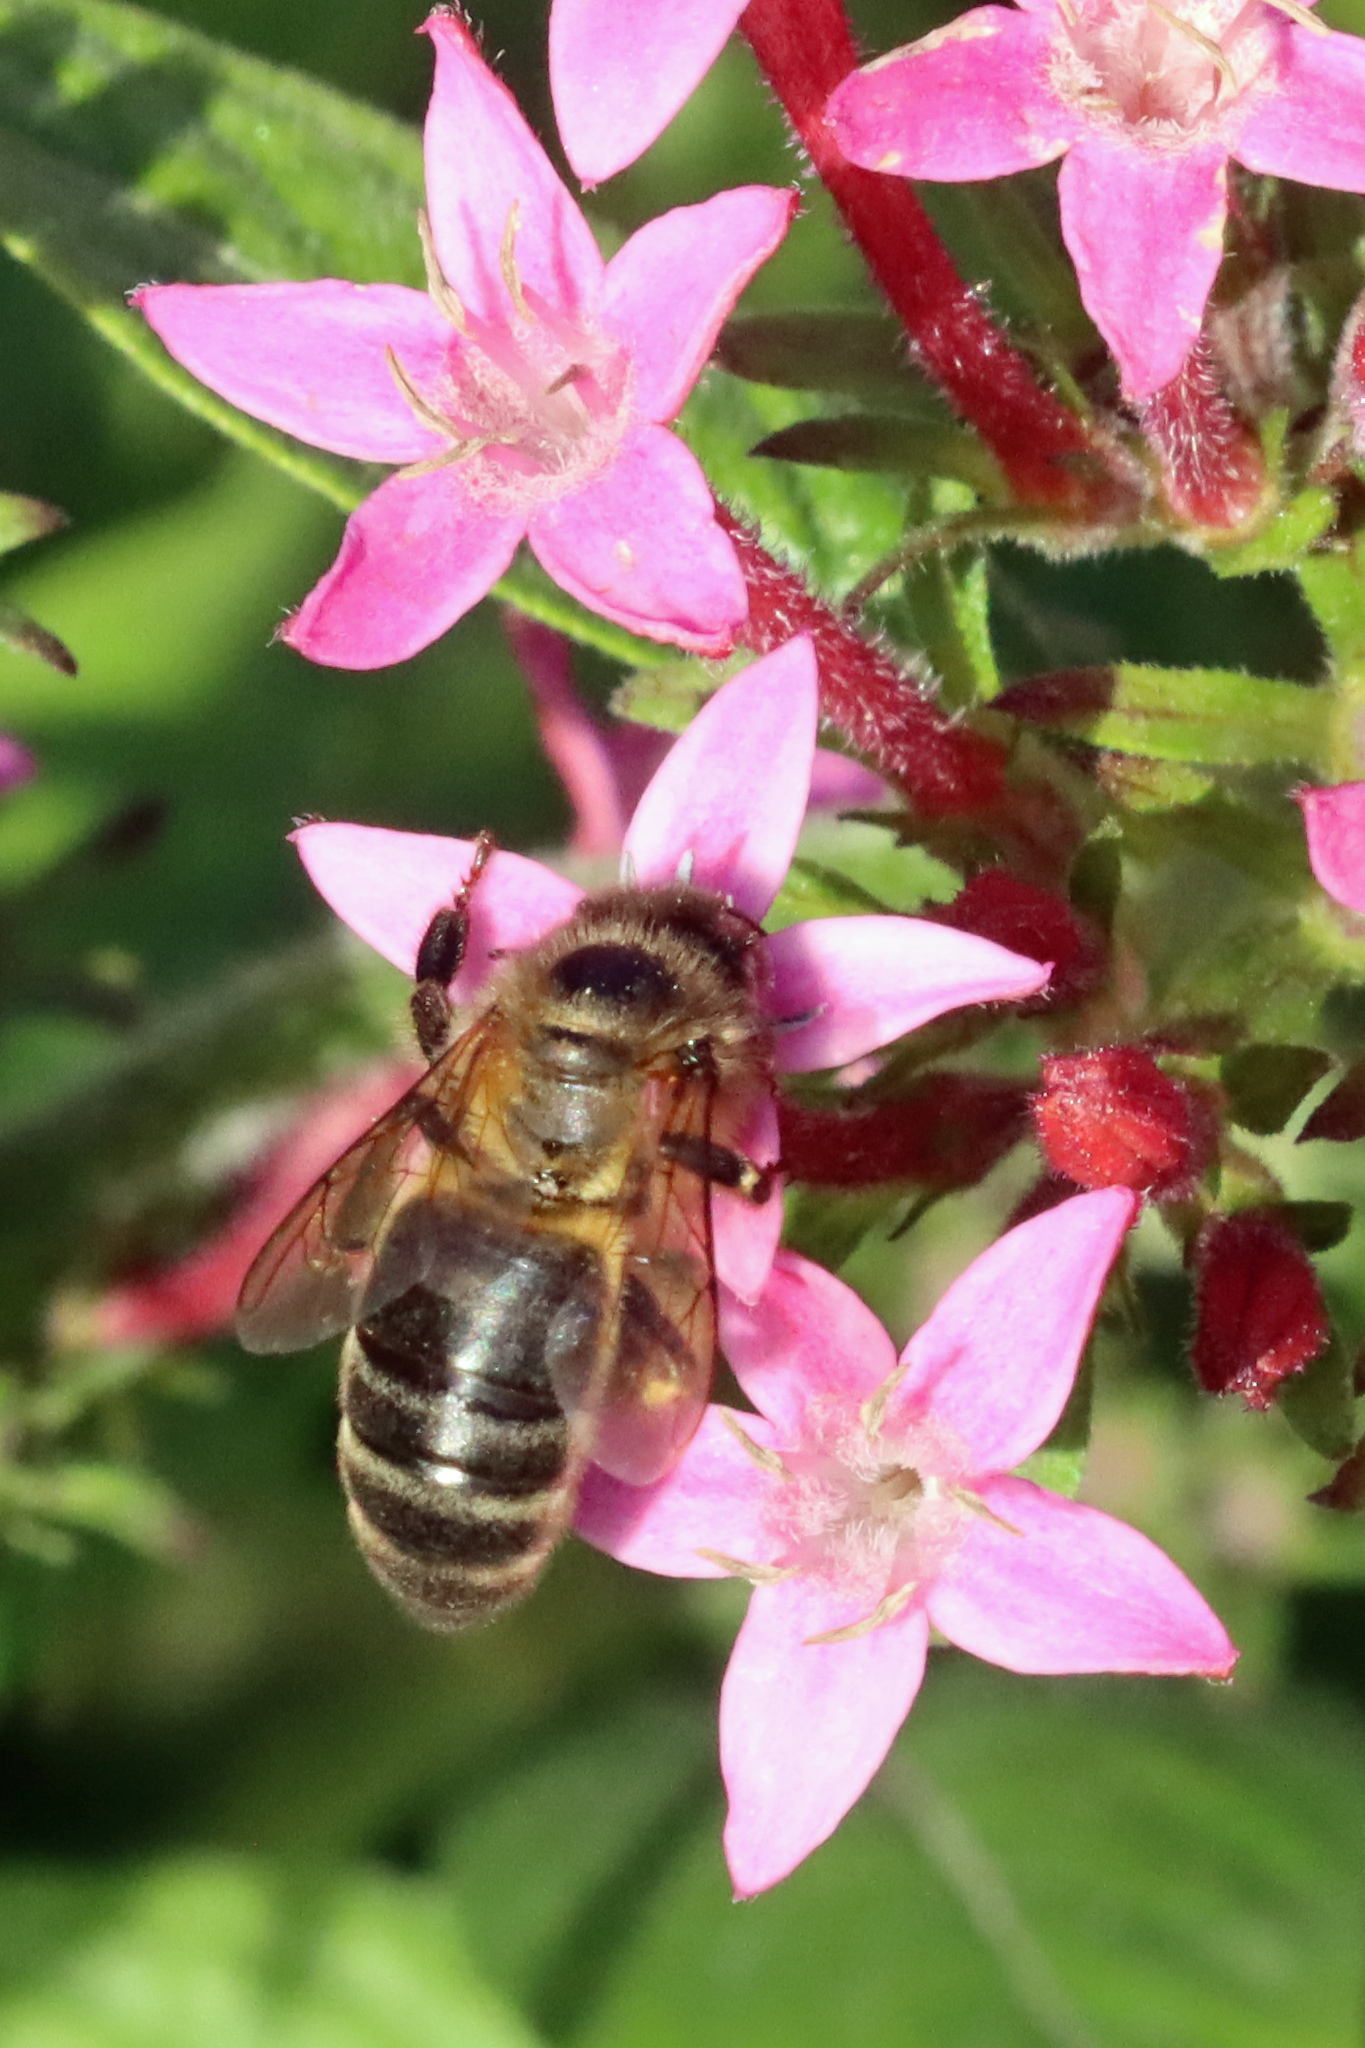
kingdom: Animalia
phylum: Arthropoda
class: Insecta
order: Hymenoptera
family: Apidae
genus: Apis
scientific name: Apis mellifera
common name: Honey bee
